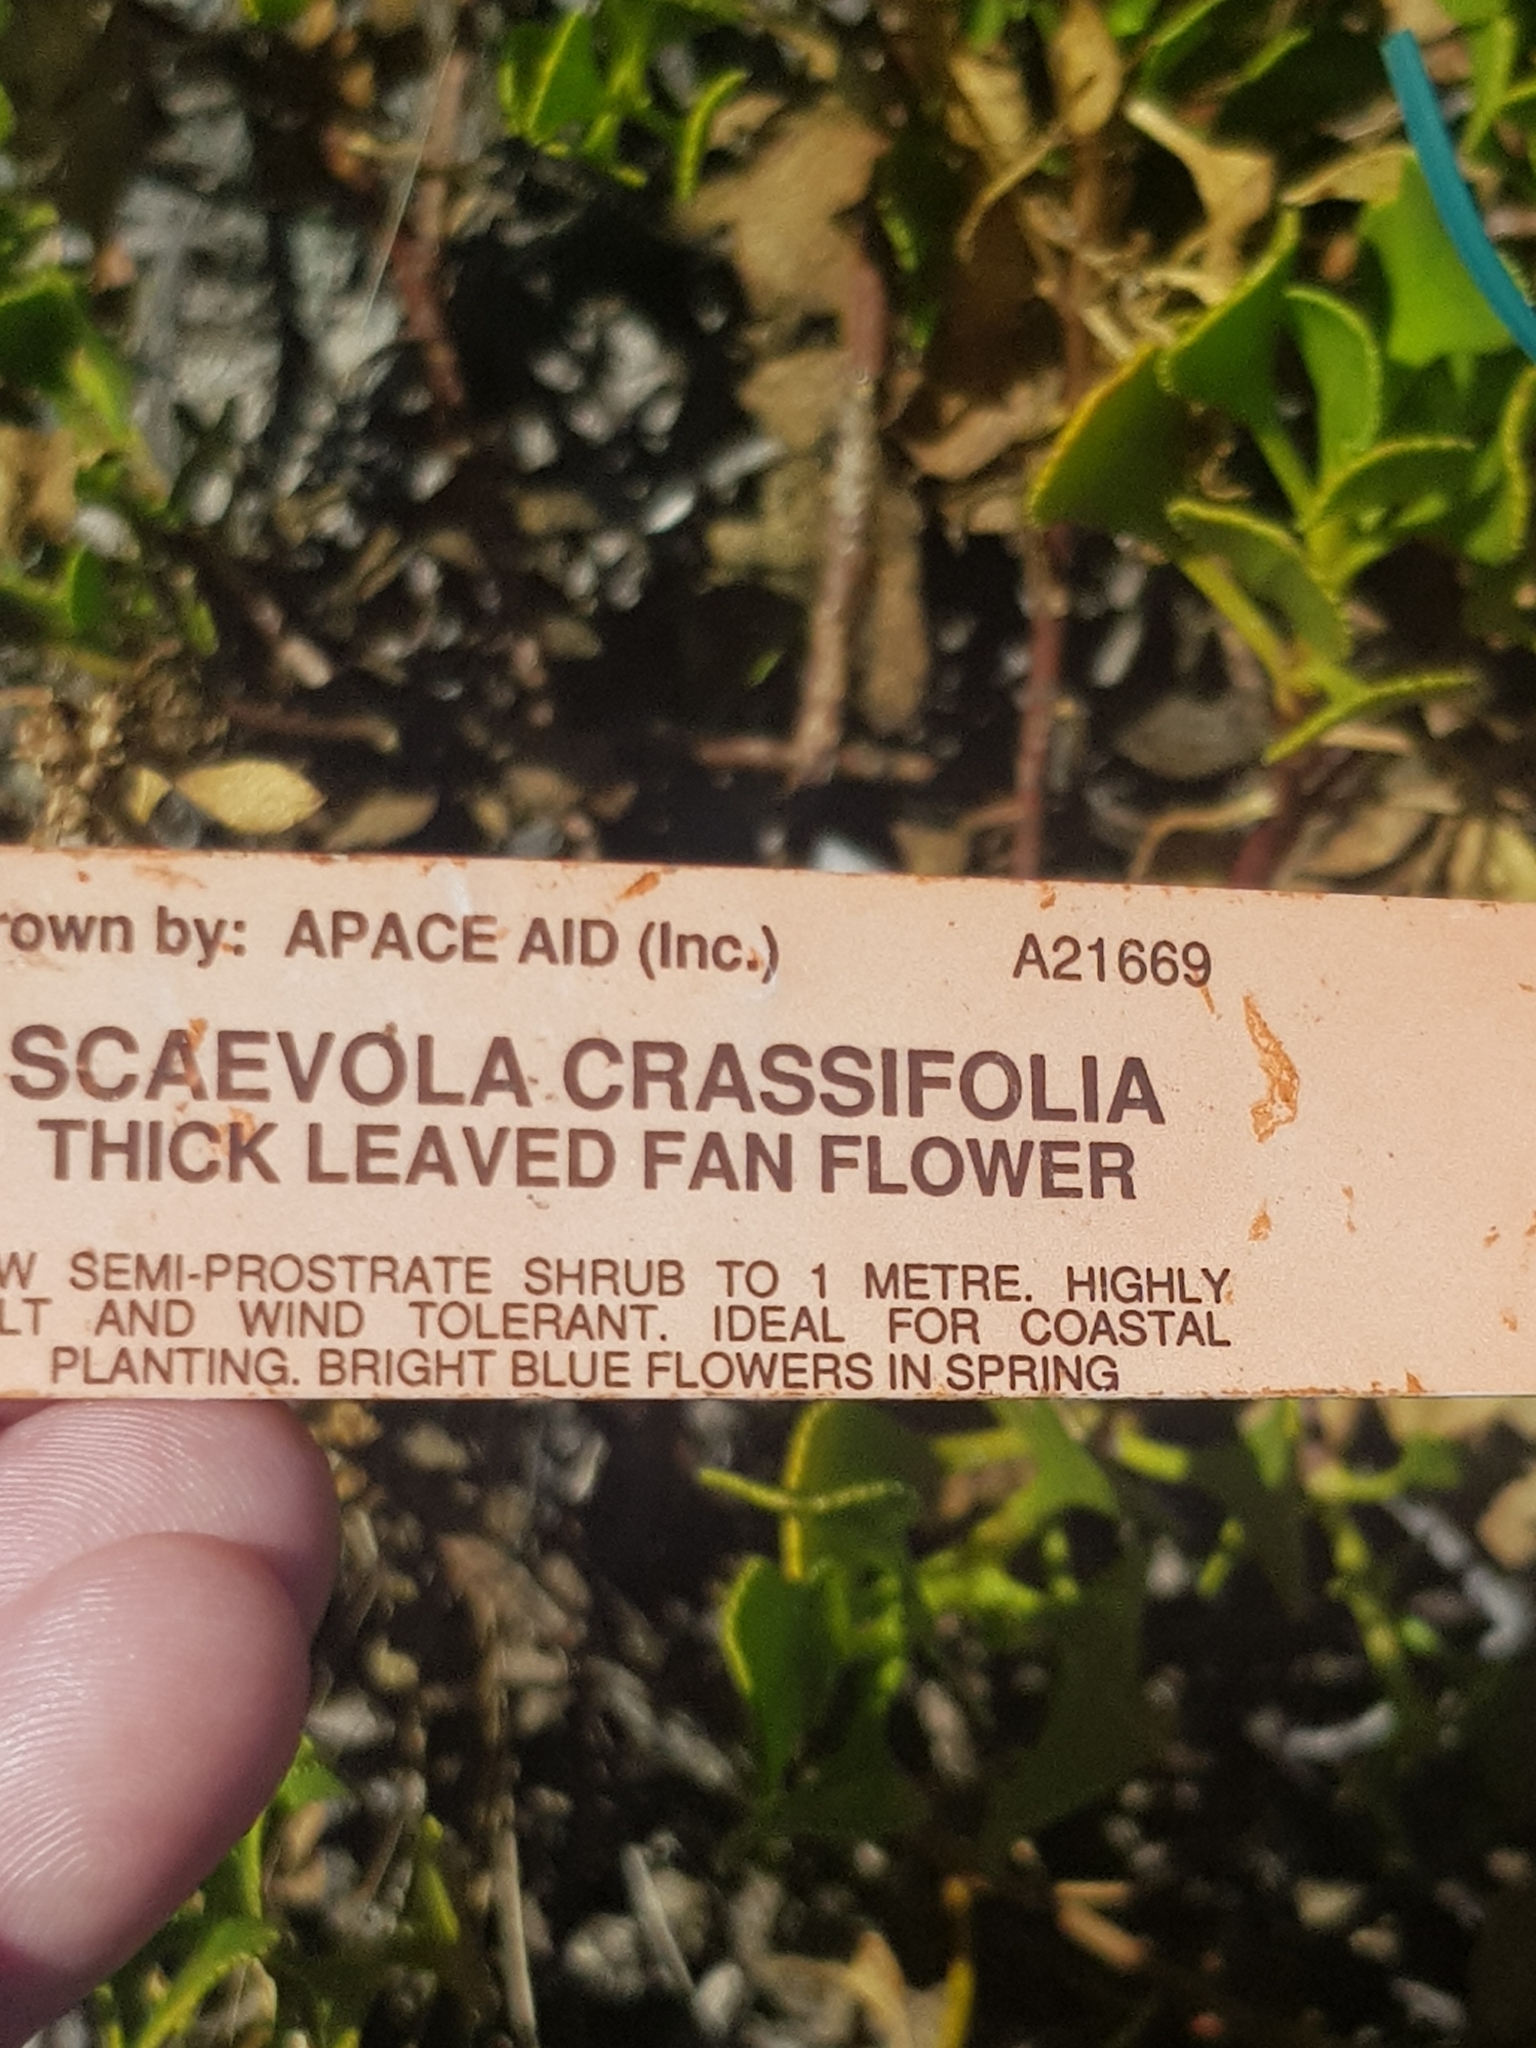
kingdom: Plantae
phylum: Tracheophyta
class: Magnoliopsida
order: Asterales
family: Goodeniaceae
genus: Scaevola
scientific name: Scaevola crassifolia
